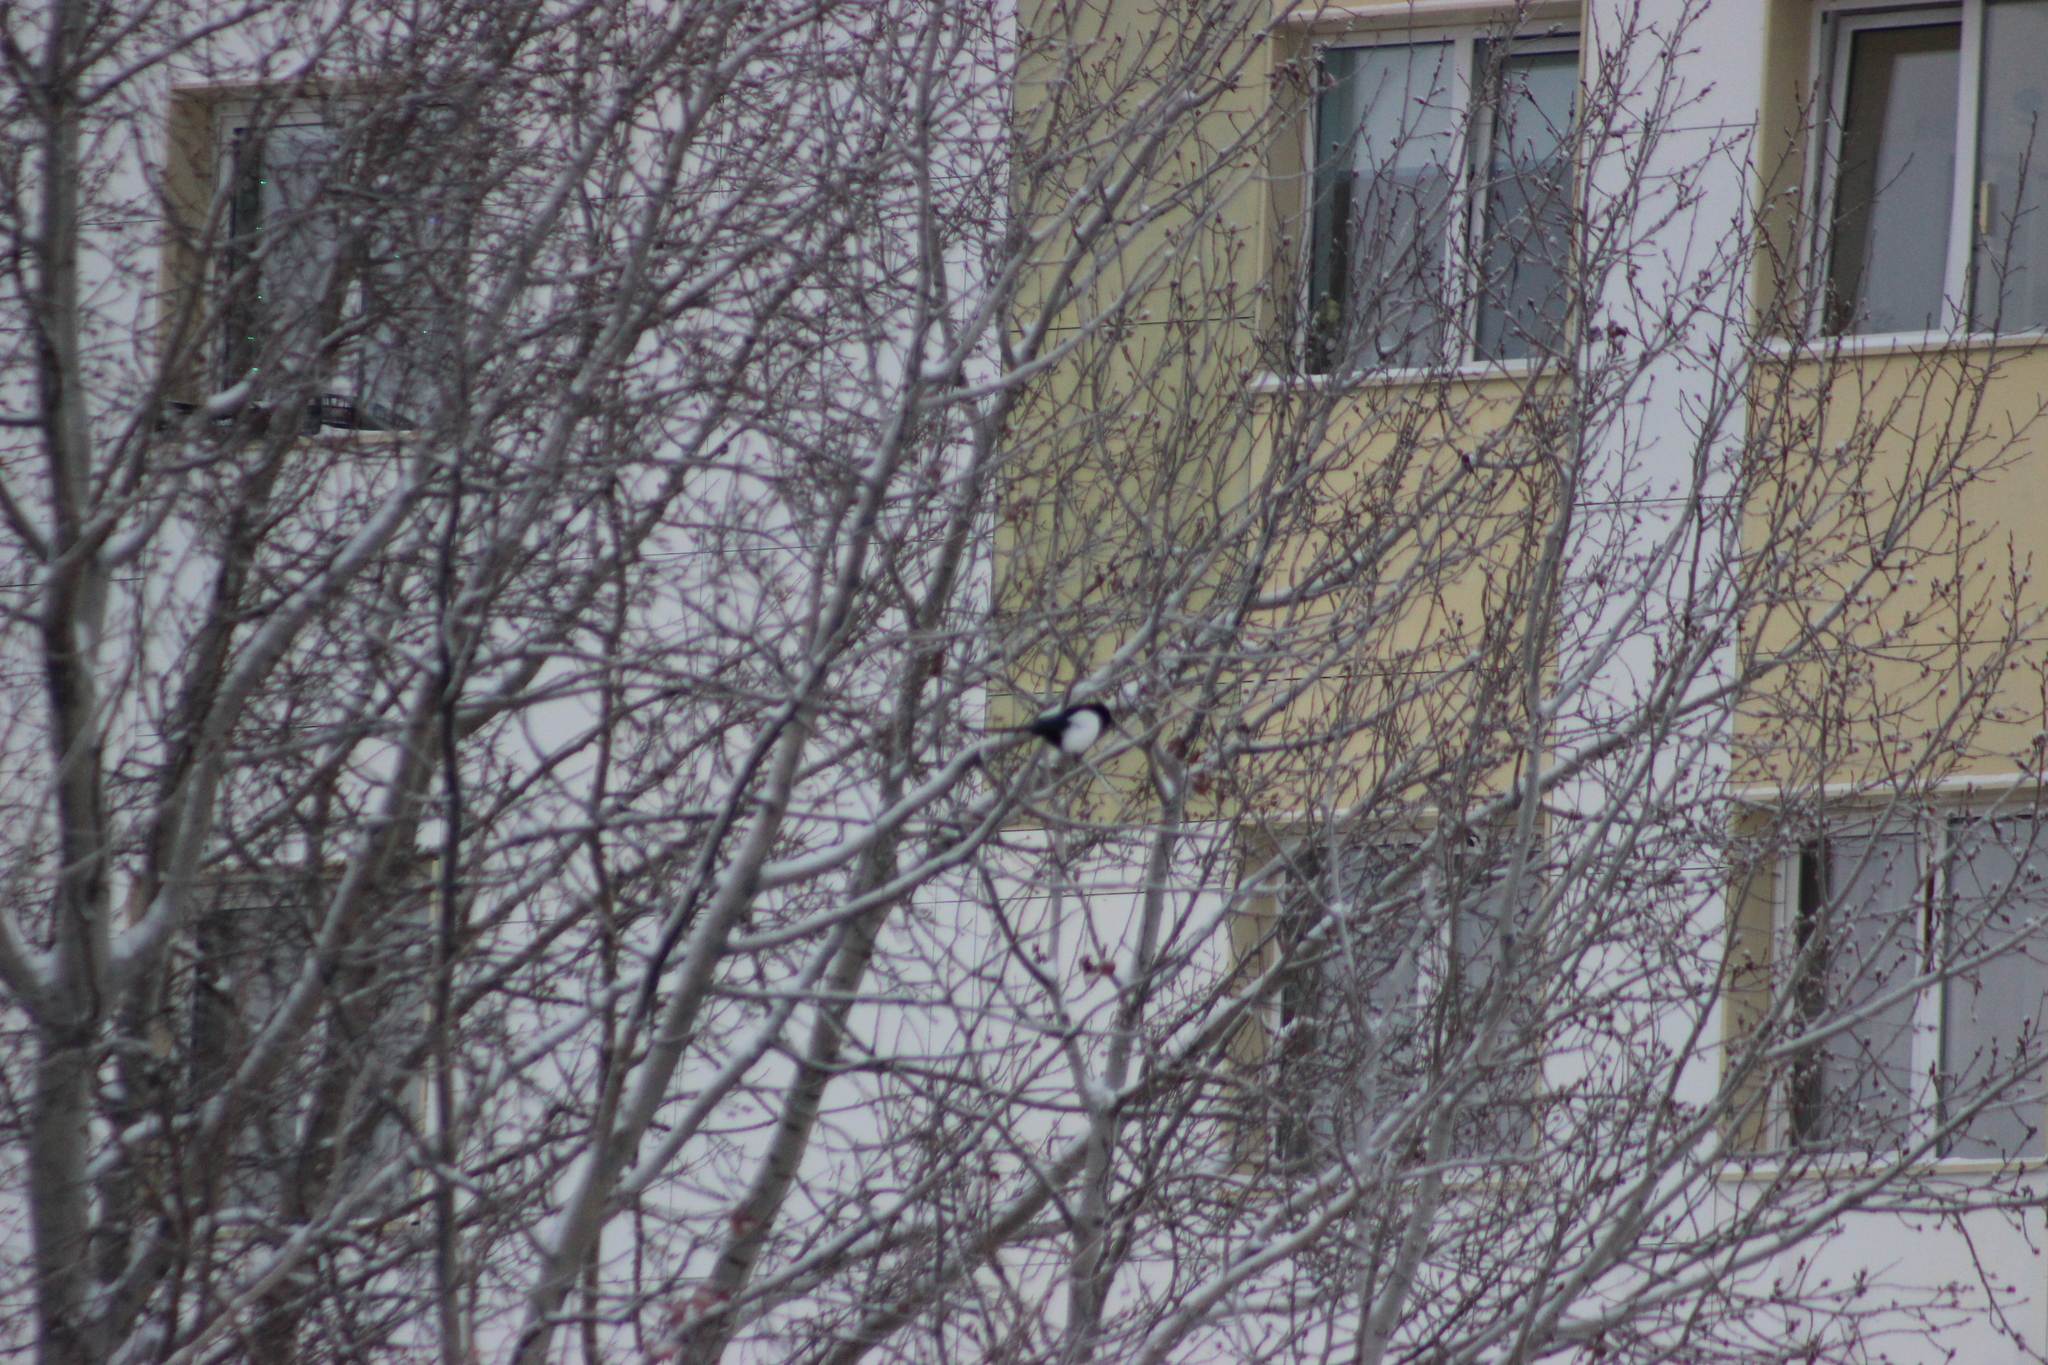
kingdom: Animalia
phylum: Chordata
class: Aves
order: Passeriformes
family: Corvidae
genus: Pica
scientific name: Pica pica
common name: Eurasian magpie
